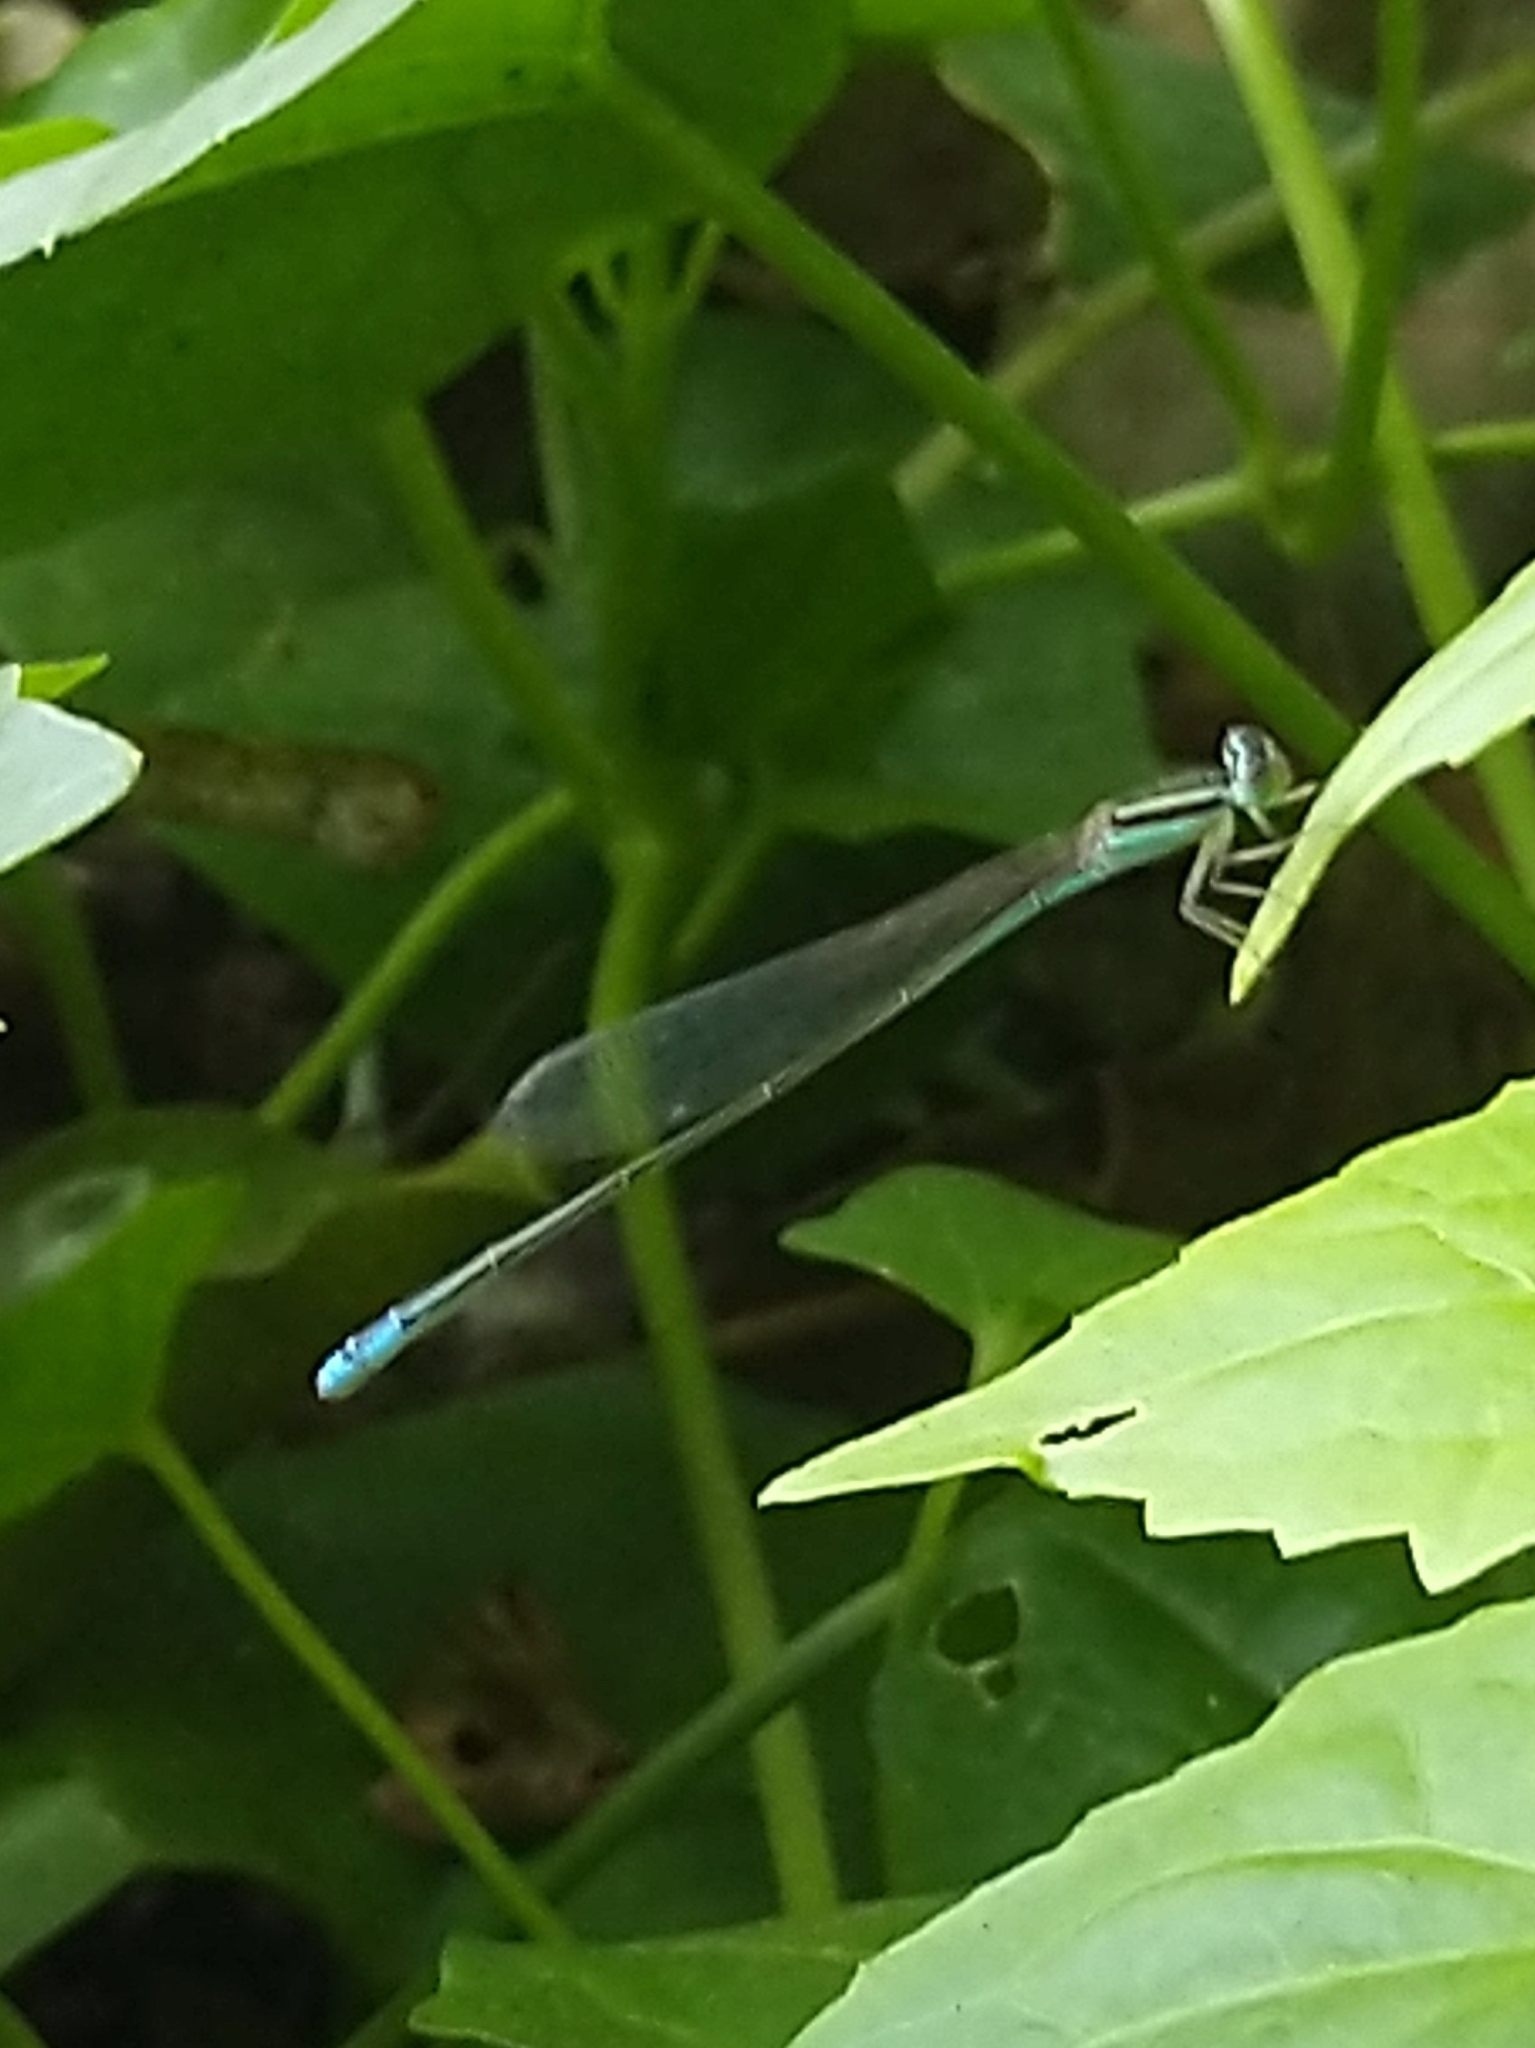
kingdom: Animalia
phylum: Arthropoda
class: Insecta
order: Odonata
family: Coenagrionidae
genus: Aciagrion
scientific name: Aciagrion occidentale
